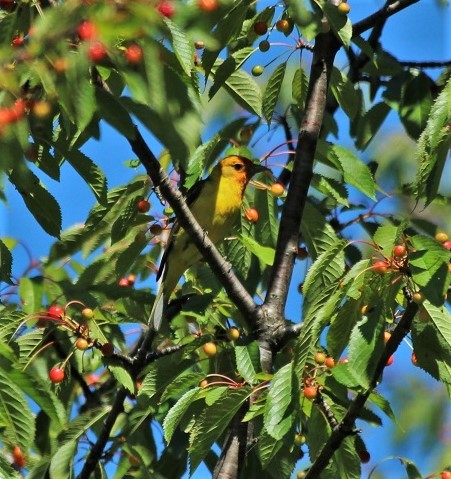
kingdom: Animalia
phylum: Chordata
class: Aves
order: Passeriformes
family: Cardinalidae
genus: Piranga
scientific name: Piranga ludoviciana
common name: Western tanager
